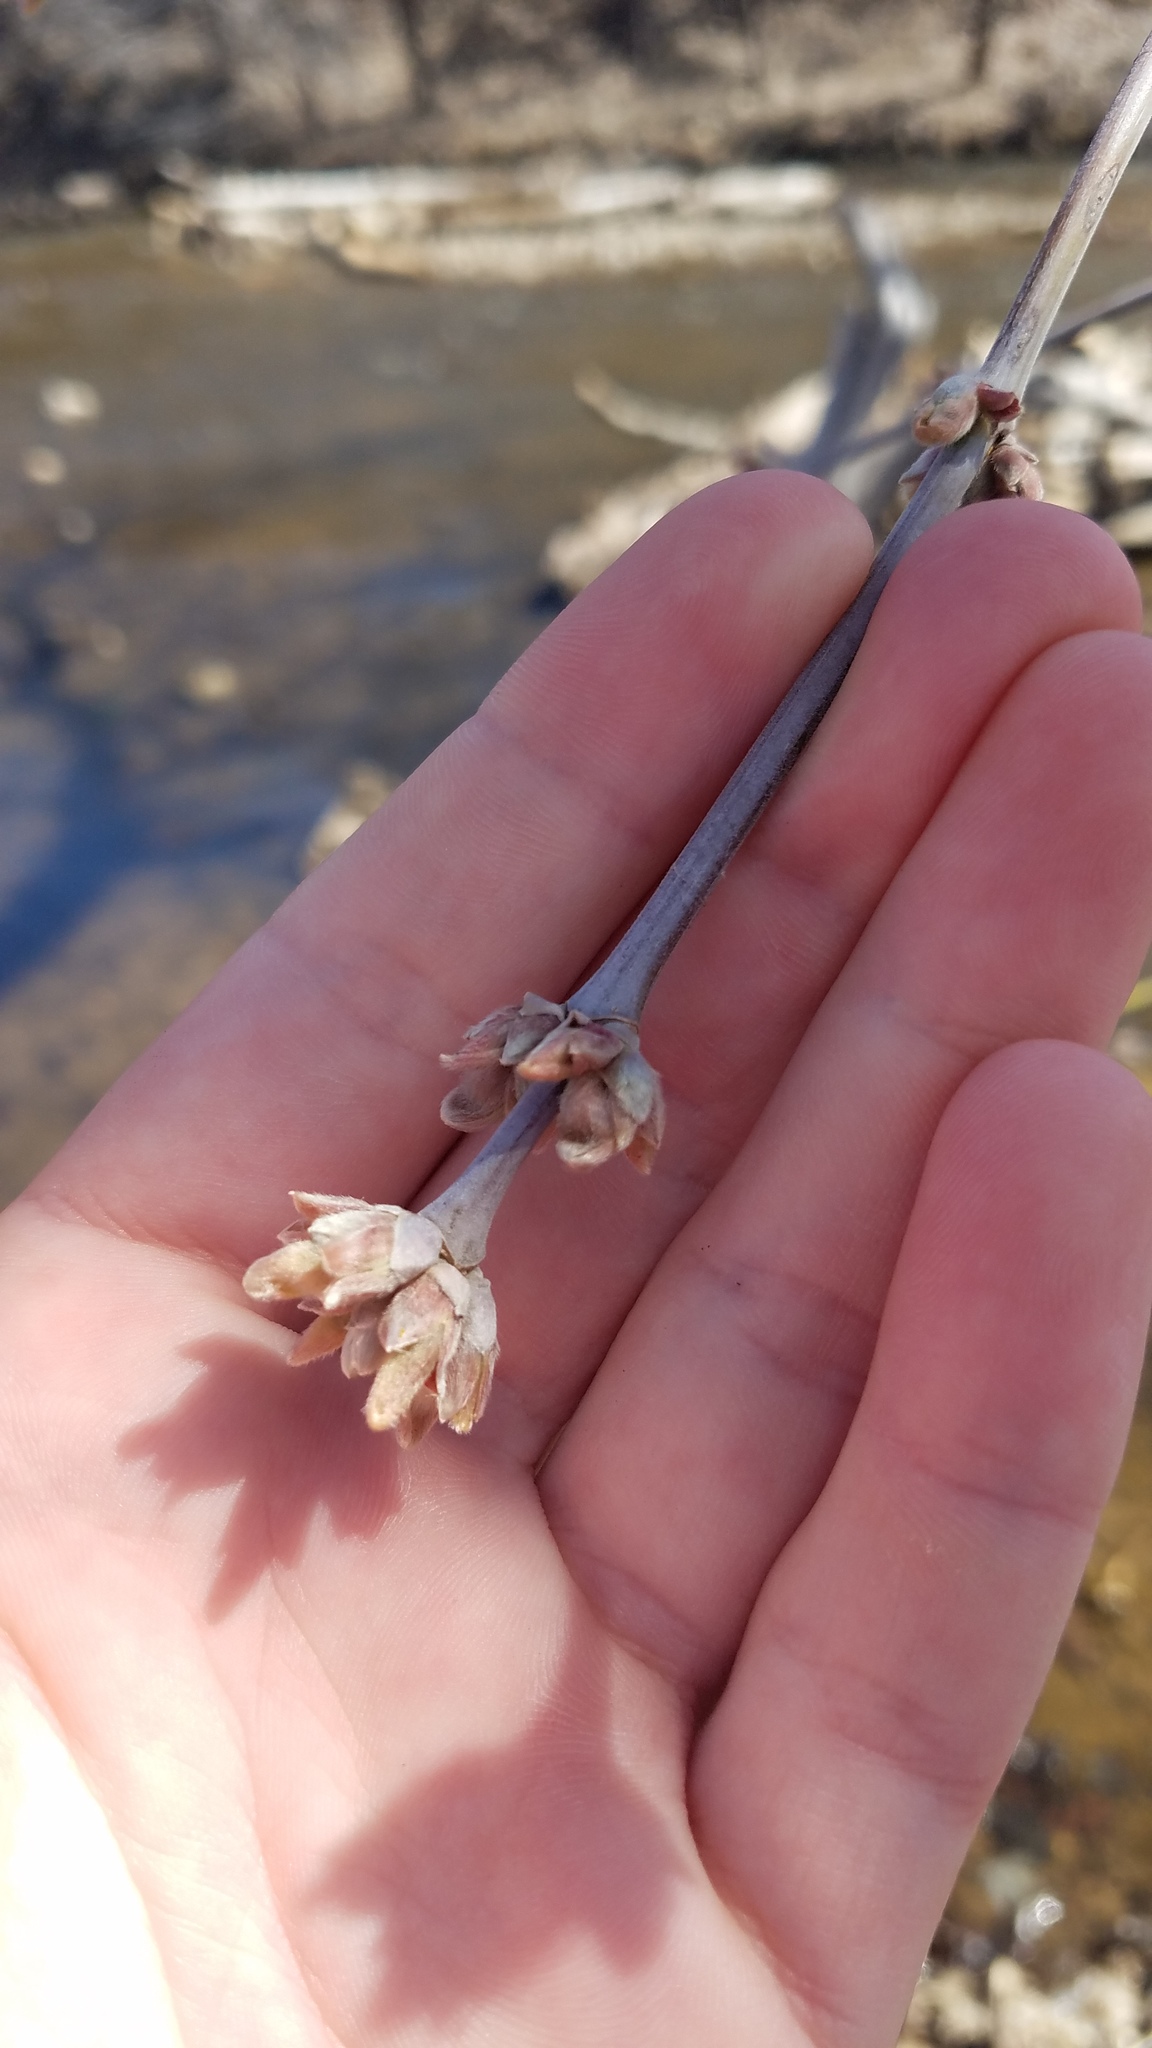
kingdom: Plantae
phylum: Tracheophyta
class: Magnoliopsida
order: Sapindales
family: Sapindaceae
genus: Acer
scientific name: Acer negundo
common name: Ashleaf maple
